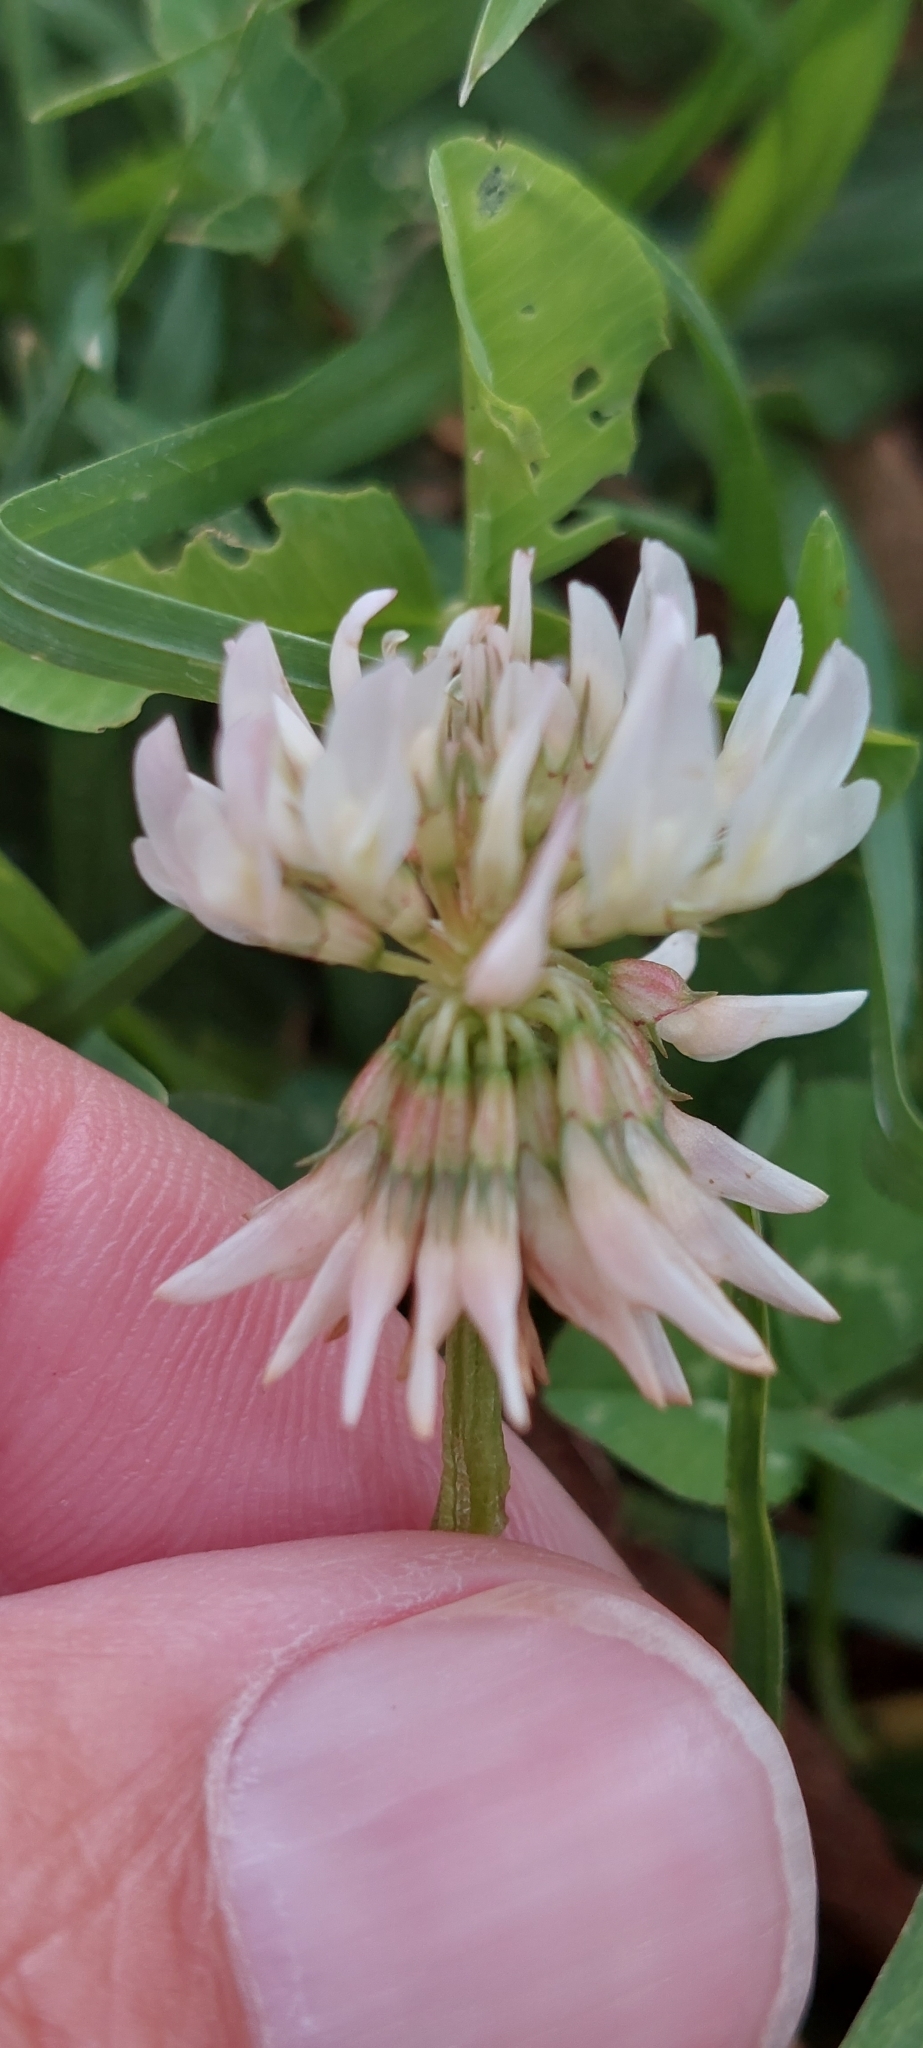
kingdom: Plantae
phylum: Tracheophyta
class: Magnoliopsida
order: Fabales
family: Fabaceae
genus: Trifolium
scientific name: Trifolium repens
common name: White clover
